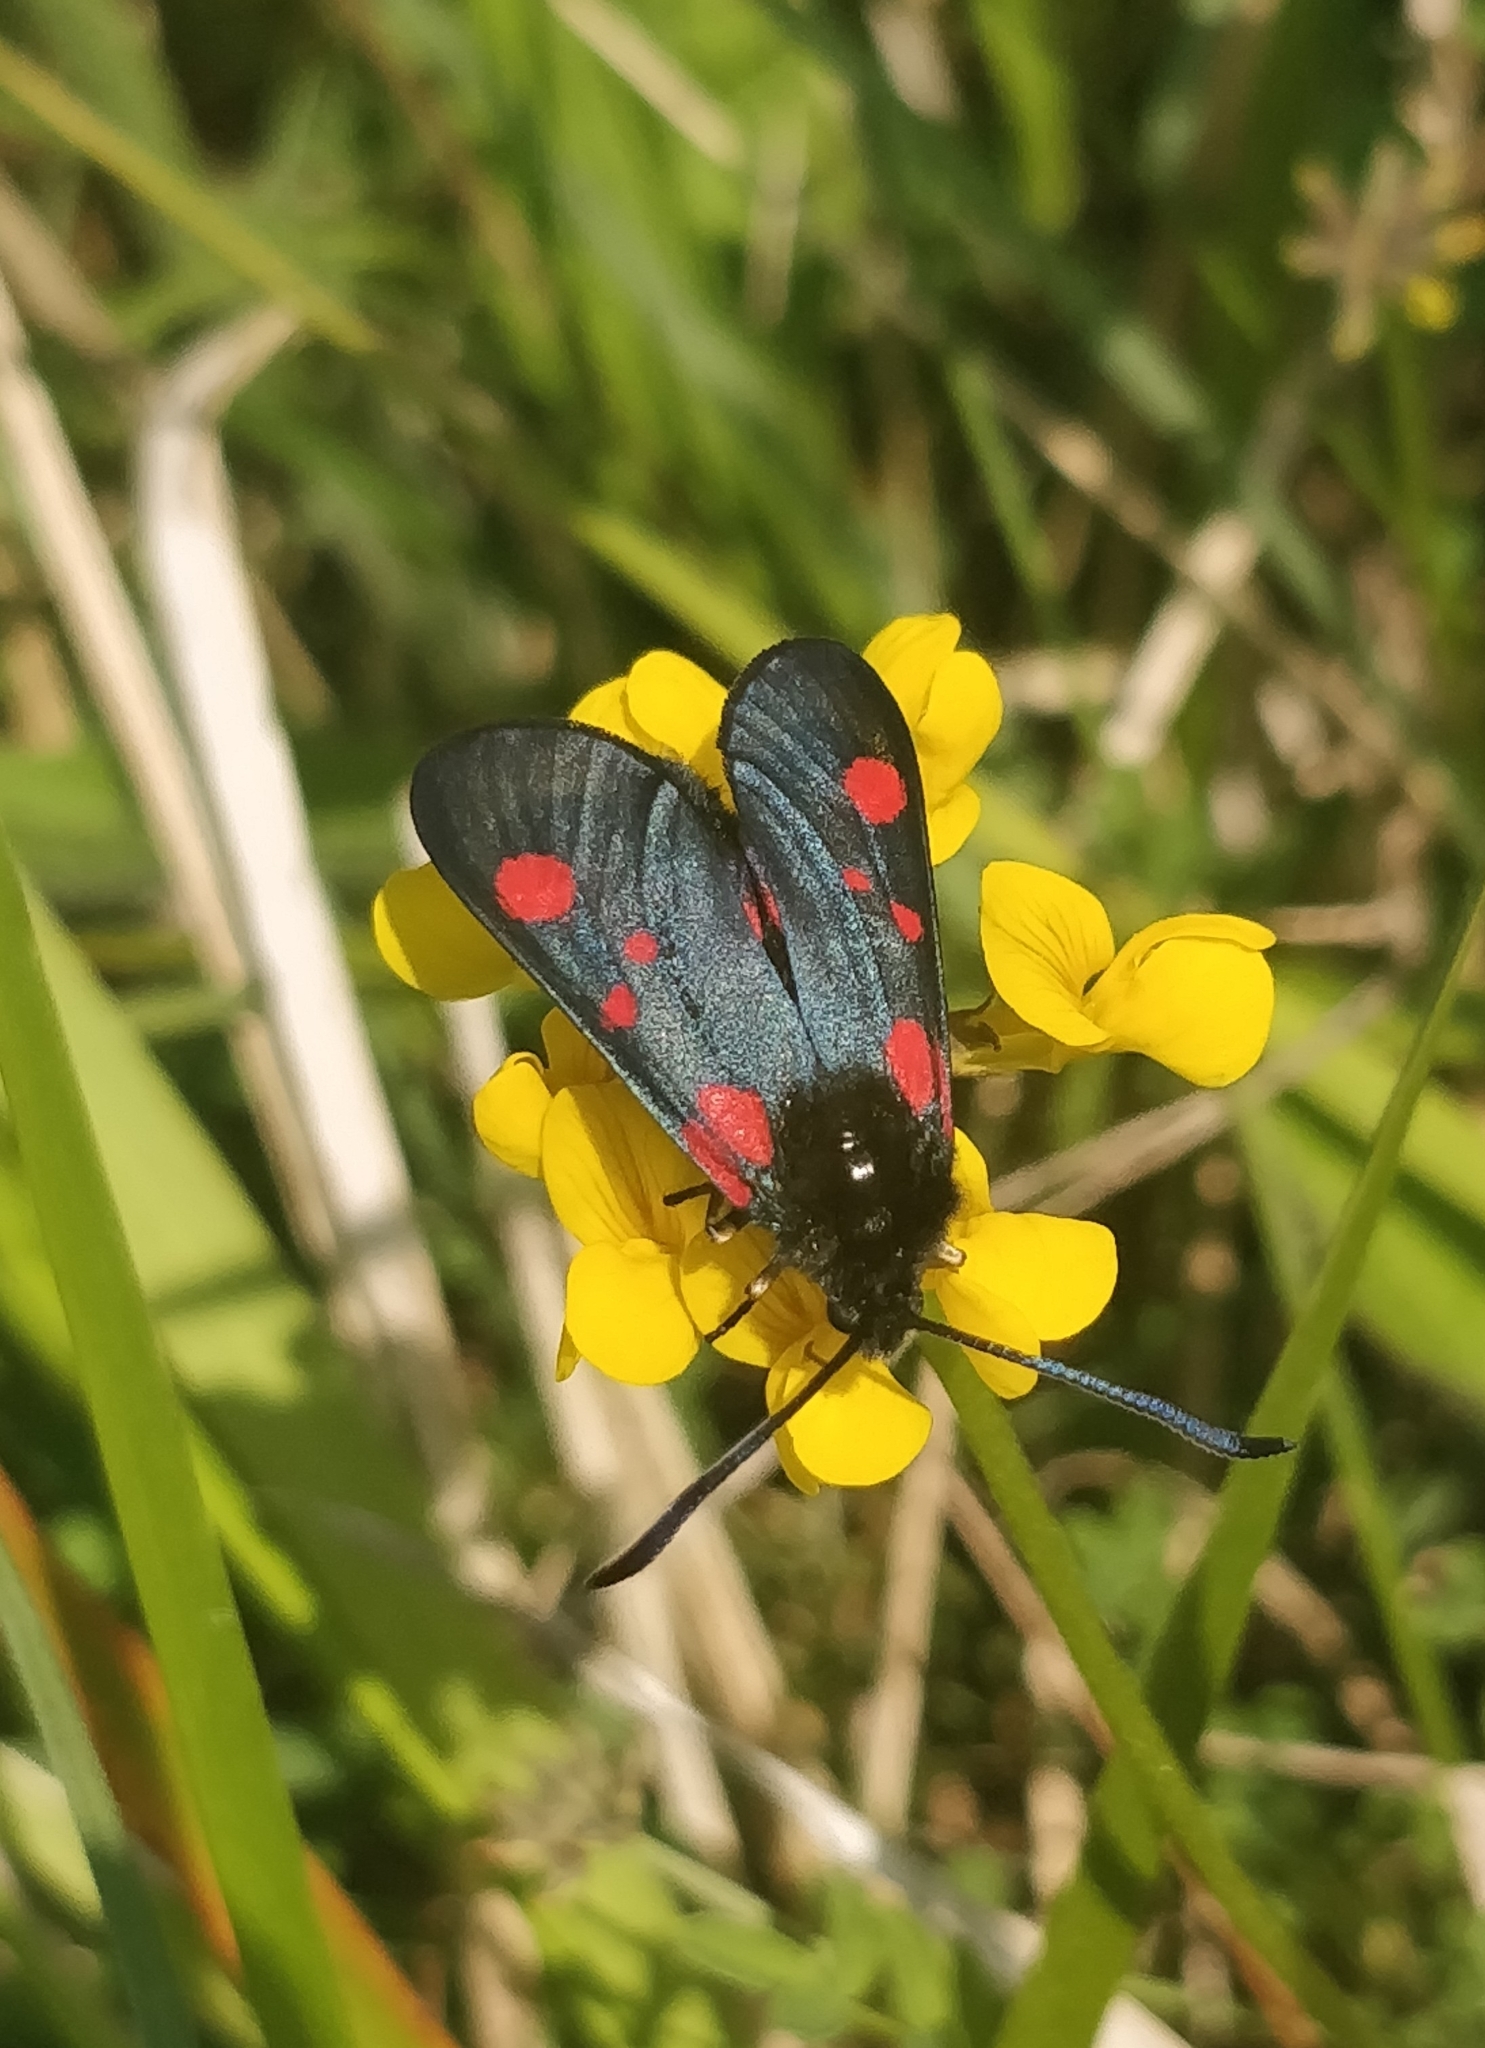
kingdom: Animalia
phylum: Arthropoda
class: Insecta
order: Lepidoptera
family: Zygaenidae
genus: Zygaena
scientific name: Zygaena trifolii
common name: Five-spot burnet
